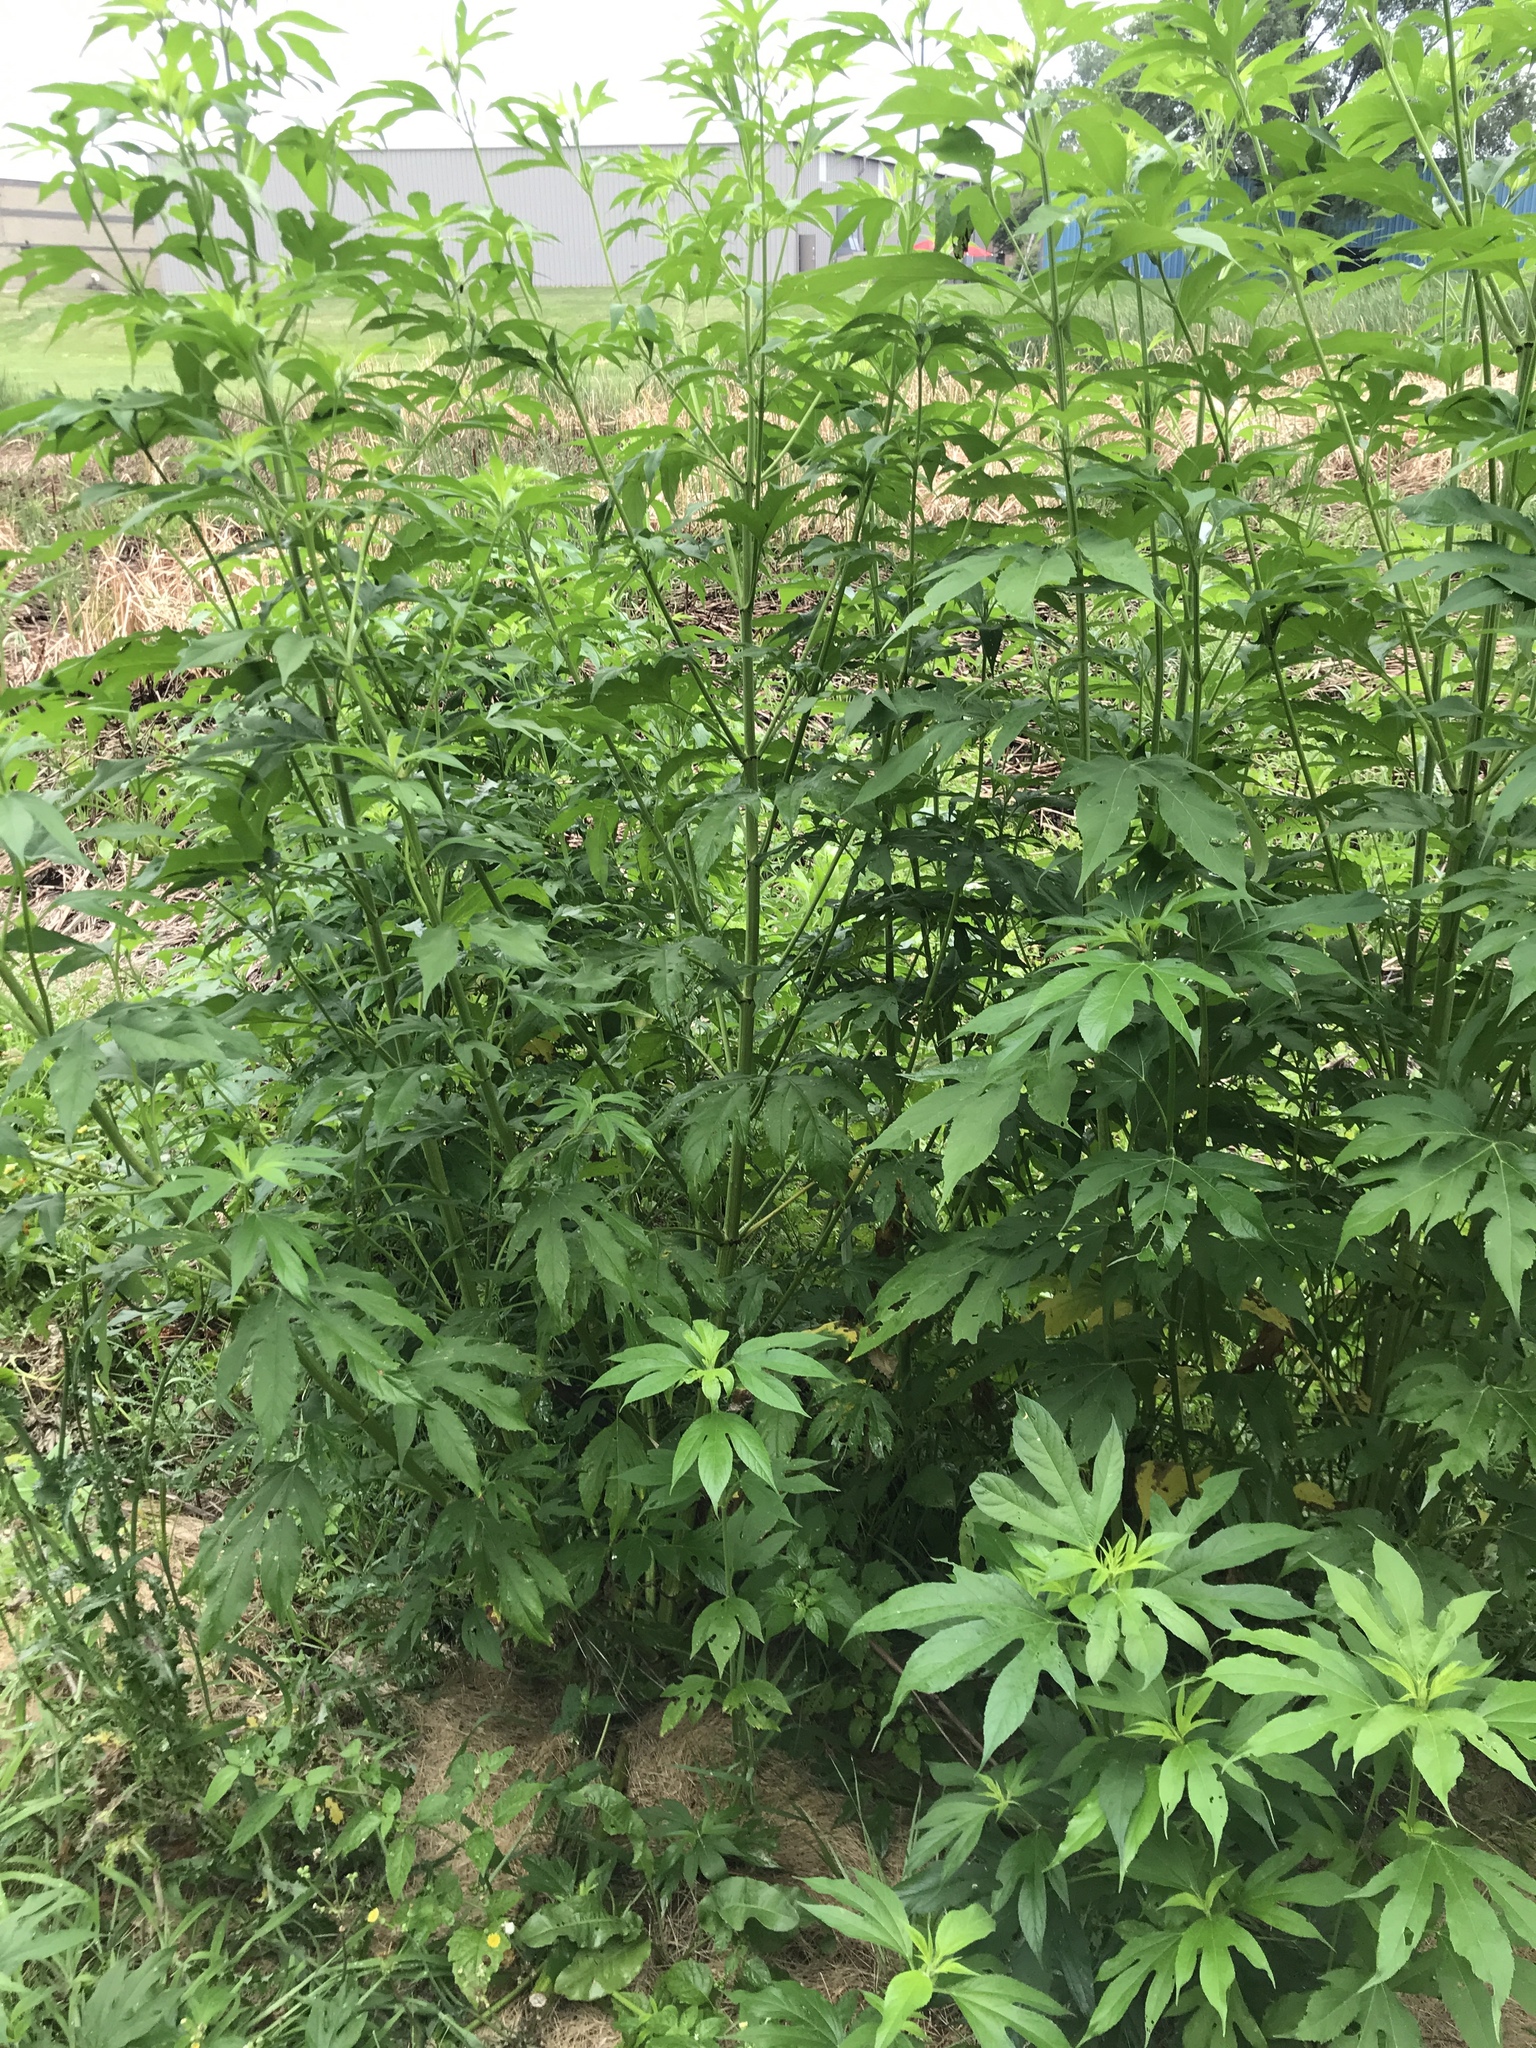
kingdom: Plantae
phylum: Tracheophyta
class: Magnoliopsida
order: Asterales
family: Asteraceae
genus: Ambrosia
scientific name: Ambrosia trifida
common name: Giant ragweed
